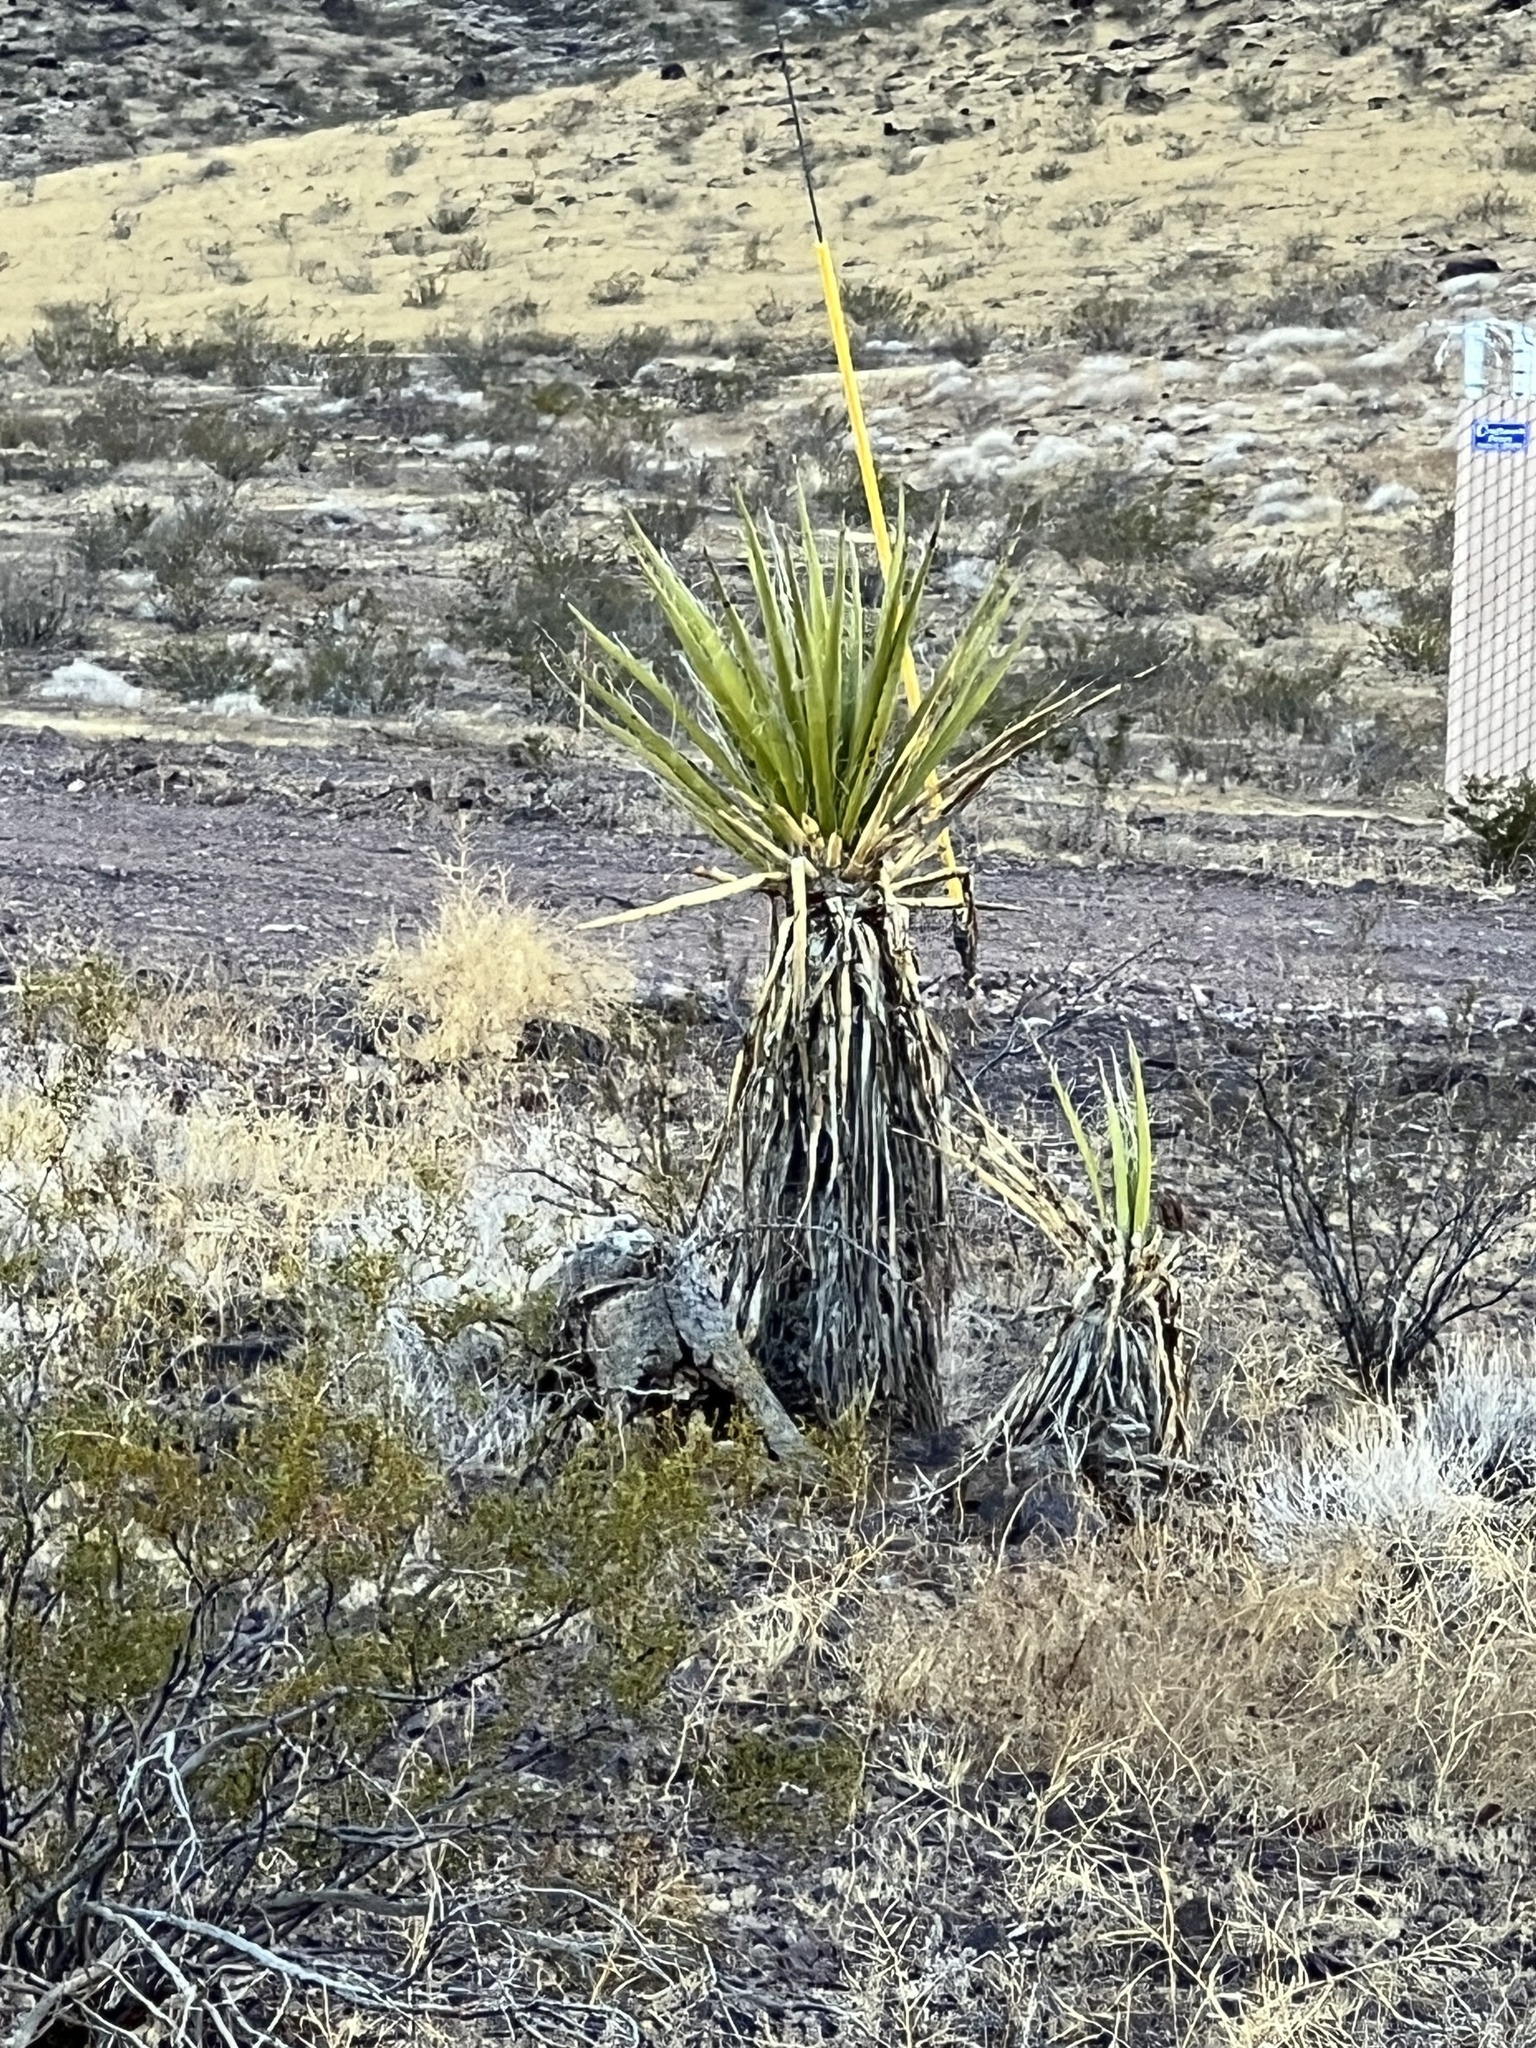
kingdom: Plantae
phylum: Tracheophyta
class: Liliopsida
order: Asparagales
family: Asparagaceae
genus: Yucca
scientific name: Yucca schidigera
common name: Mojave yucca
